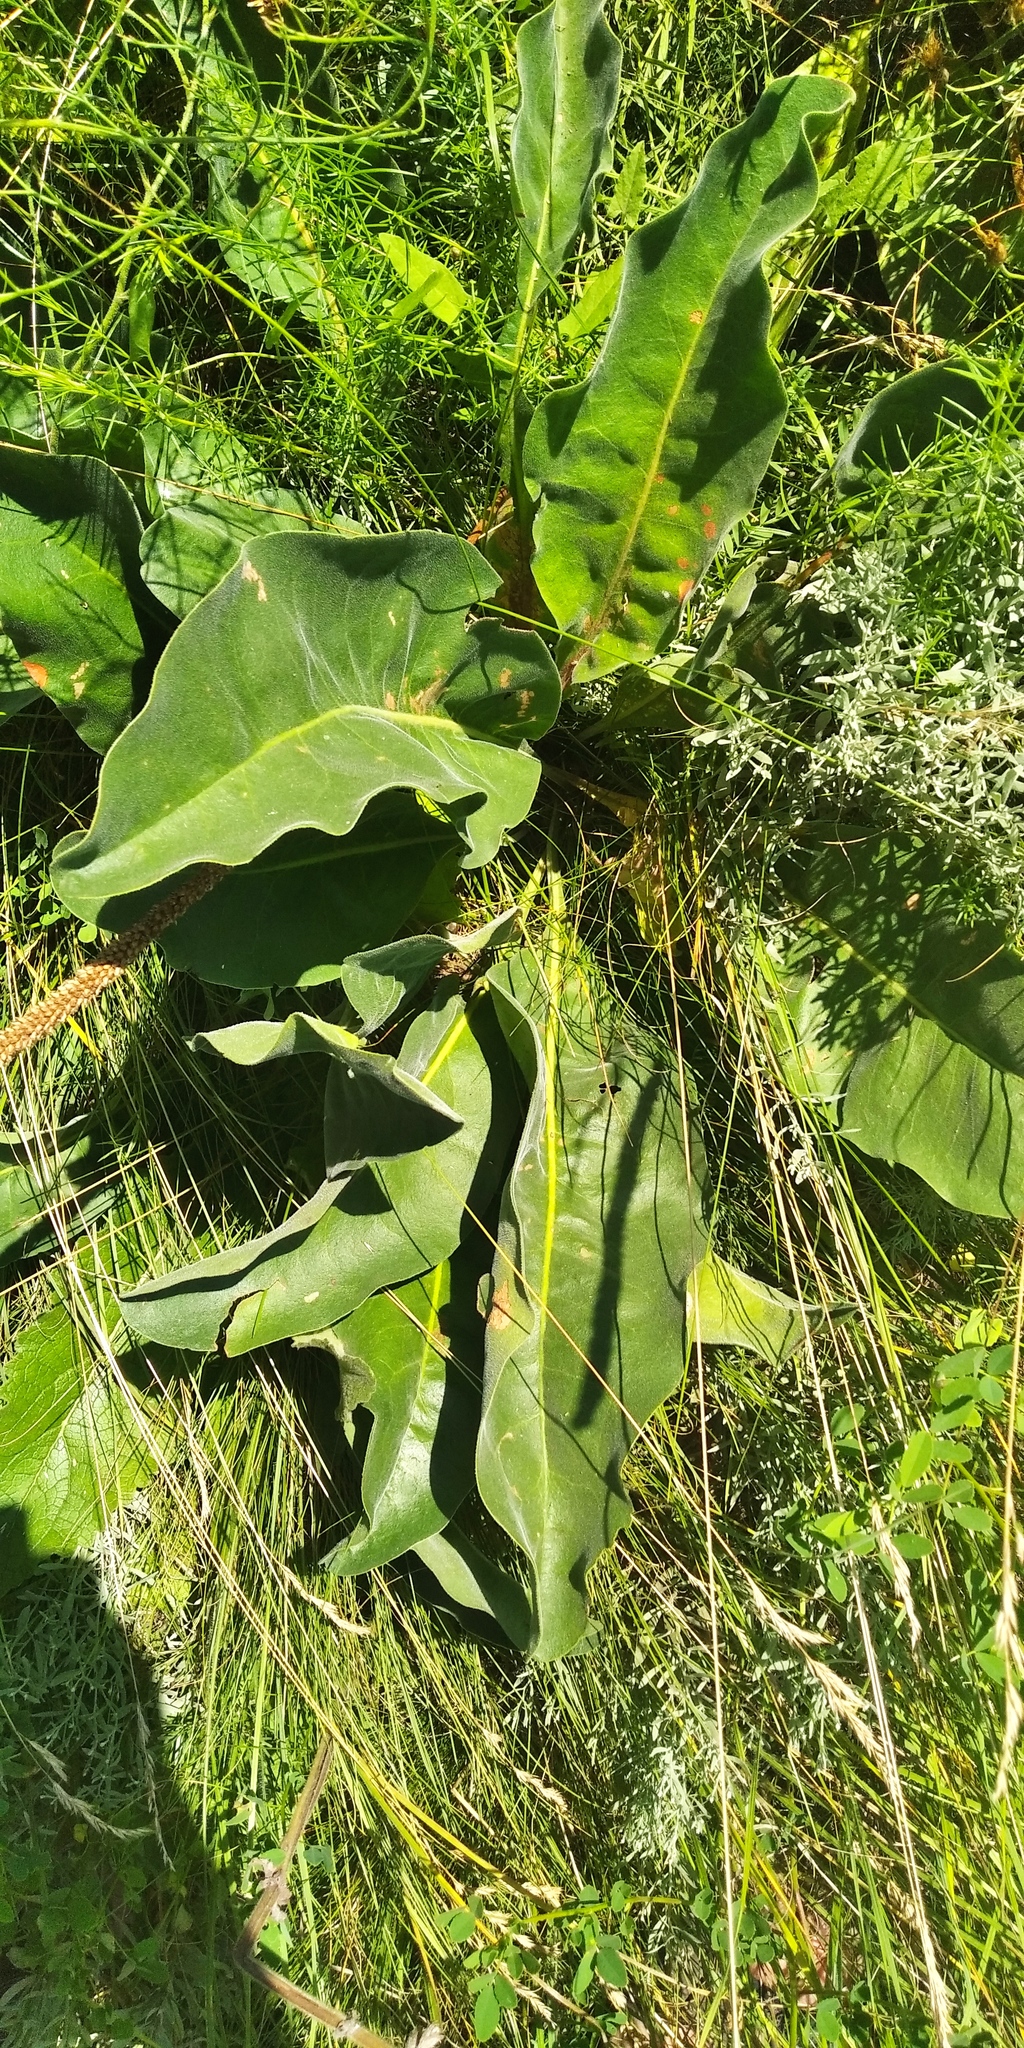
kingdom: Plantae
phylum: Tracheophyta
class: Magnoliopsida
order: Caryophyllales
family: Plumbaginaceae
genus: Limonium
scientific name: Limonium platyphyllum
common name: Florist's sea lavender
